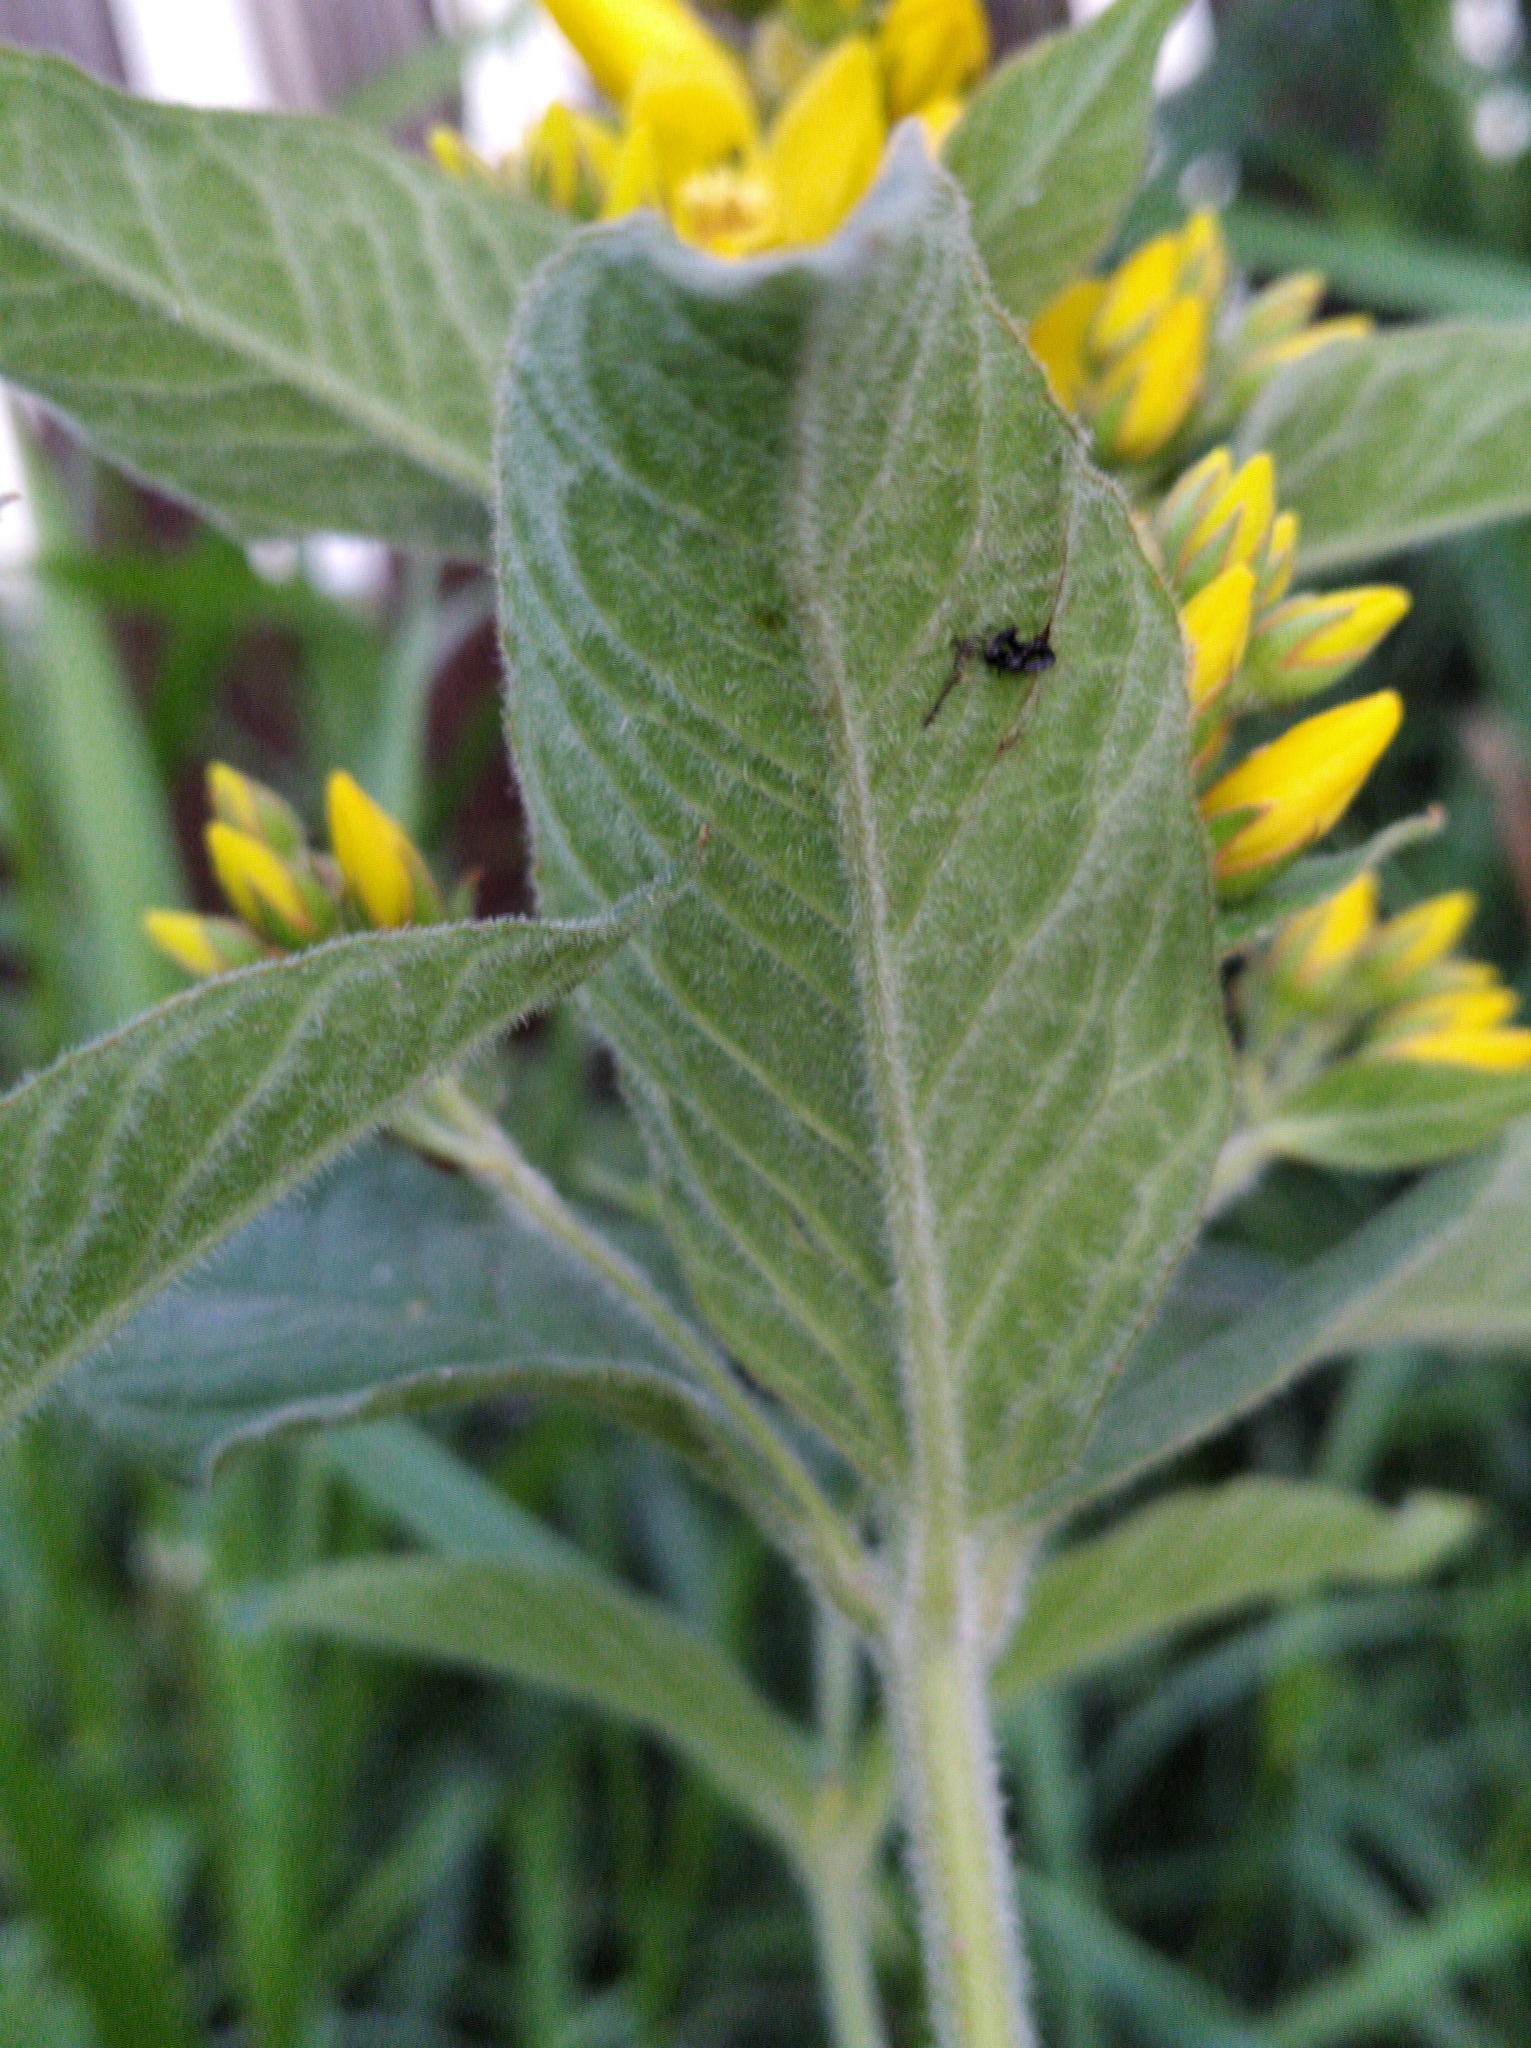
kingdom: Plantae
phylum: Tracheophyta
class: Magnoliopsida
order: Ericales
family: Primulaceae
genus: Lysimachia
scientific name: Lysimachia vulgaris
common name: Yellow loosestrife
